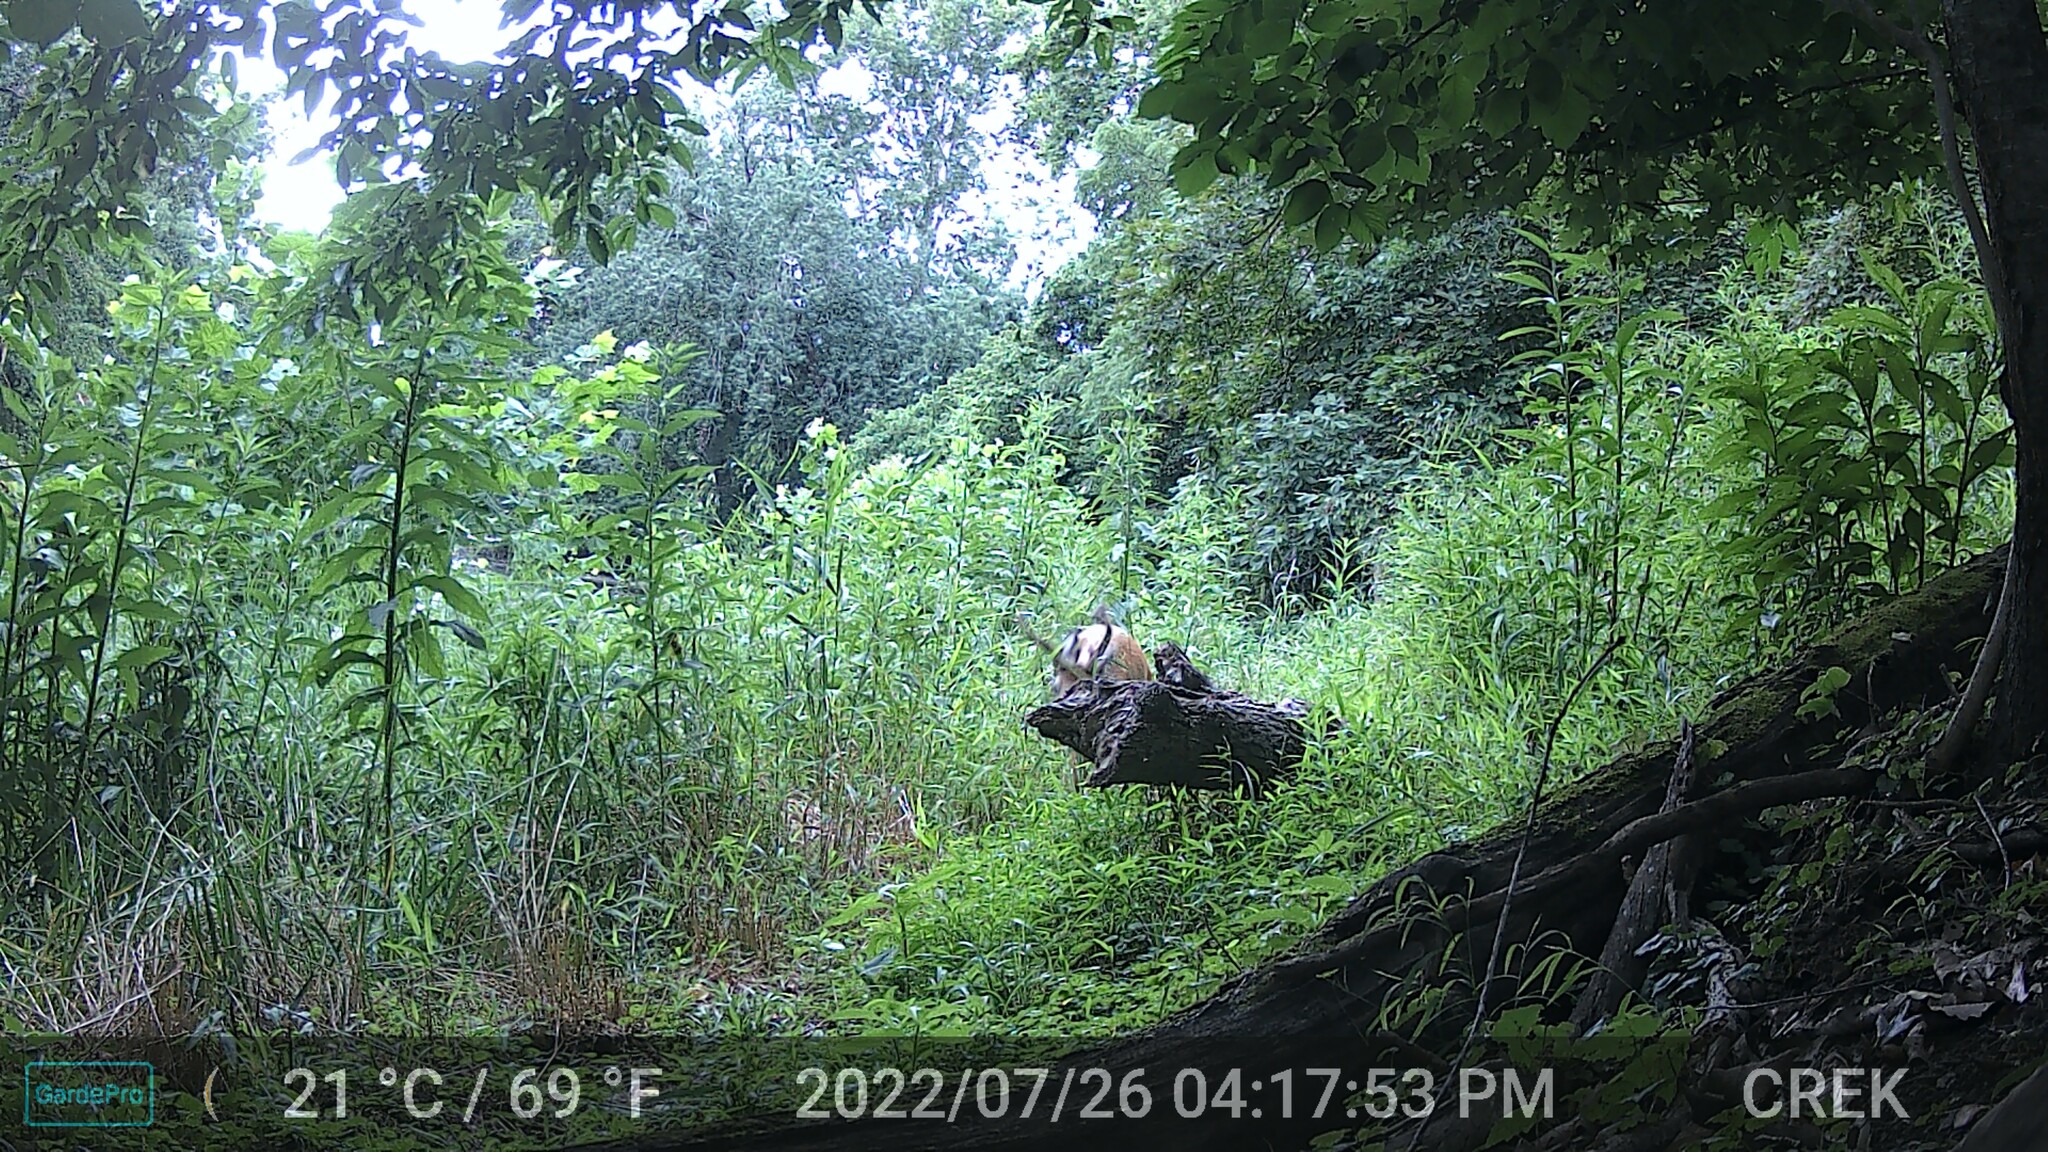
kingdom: Animalia
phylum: Chordata
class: Mammalia
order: Artiodactyla
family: Cervidae
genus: Odocoileus
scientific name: Odocoileus virginianus
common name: White-tailed deer
